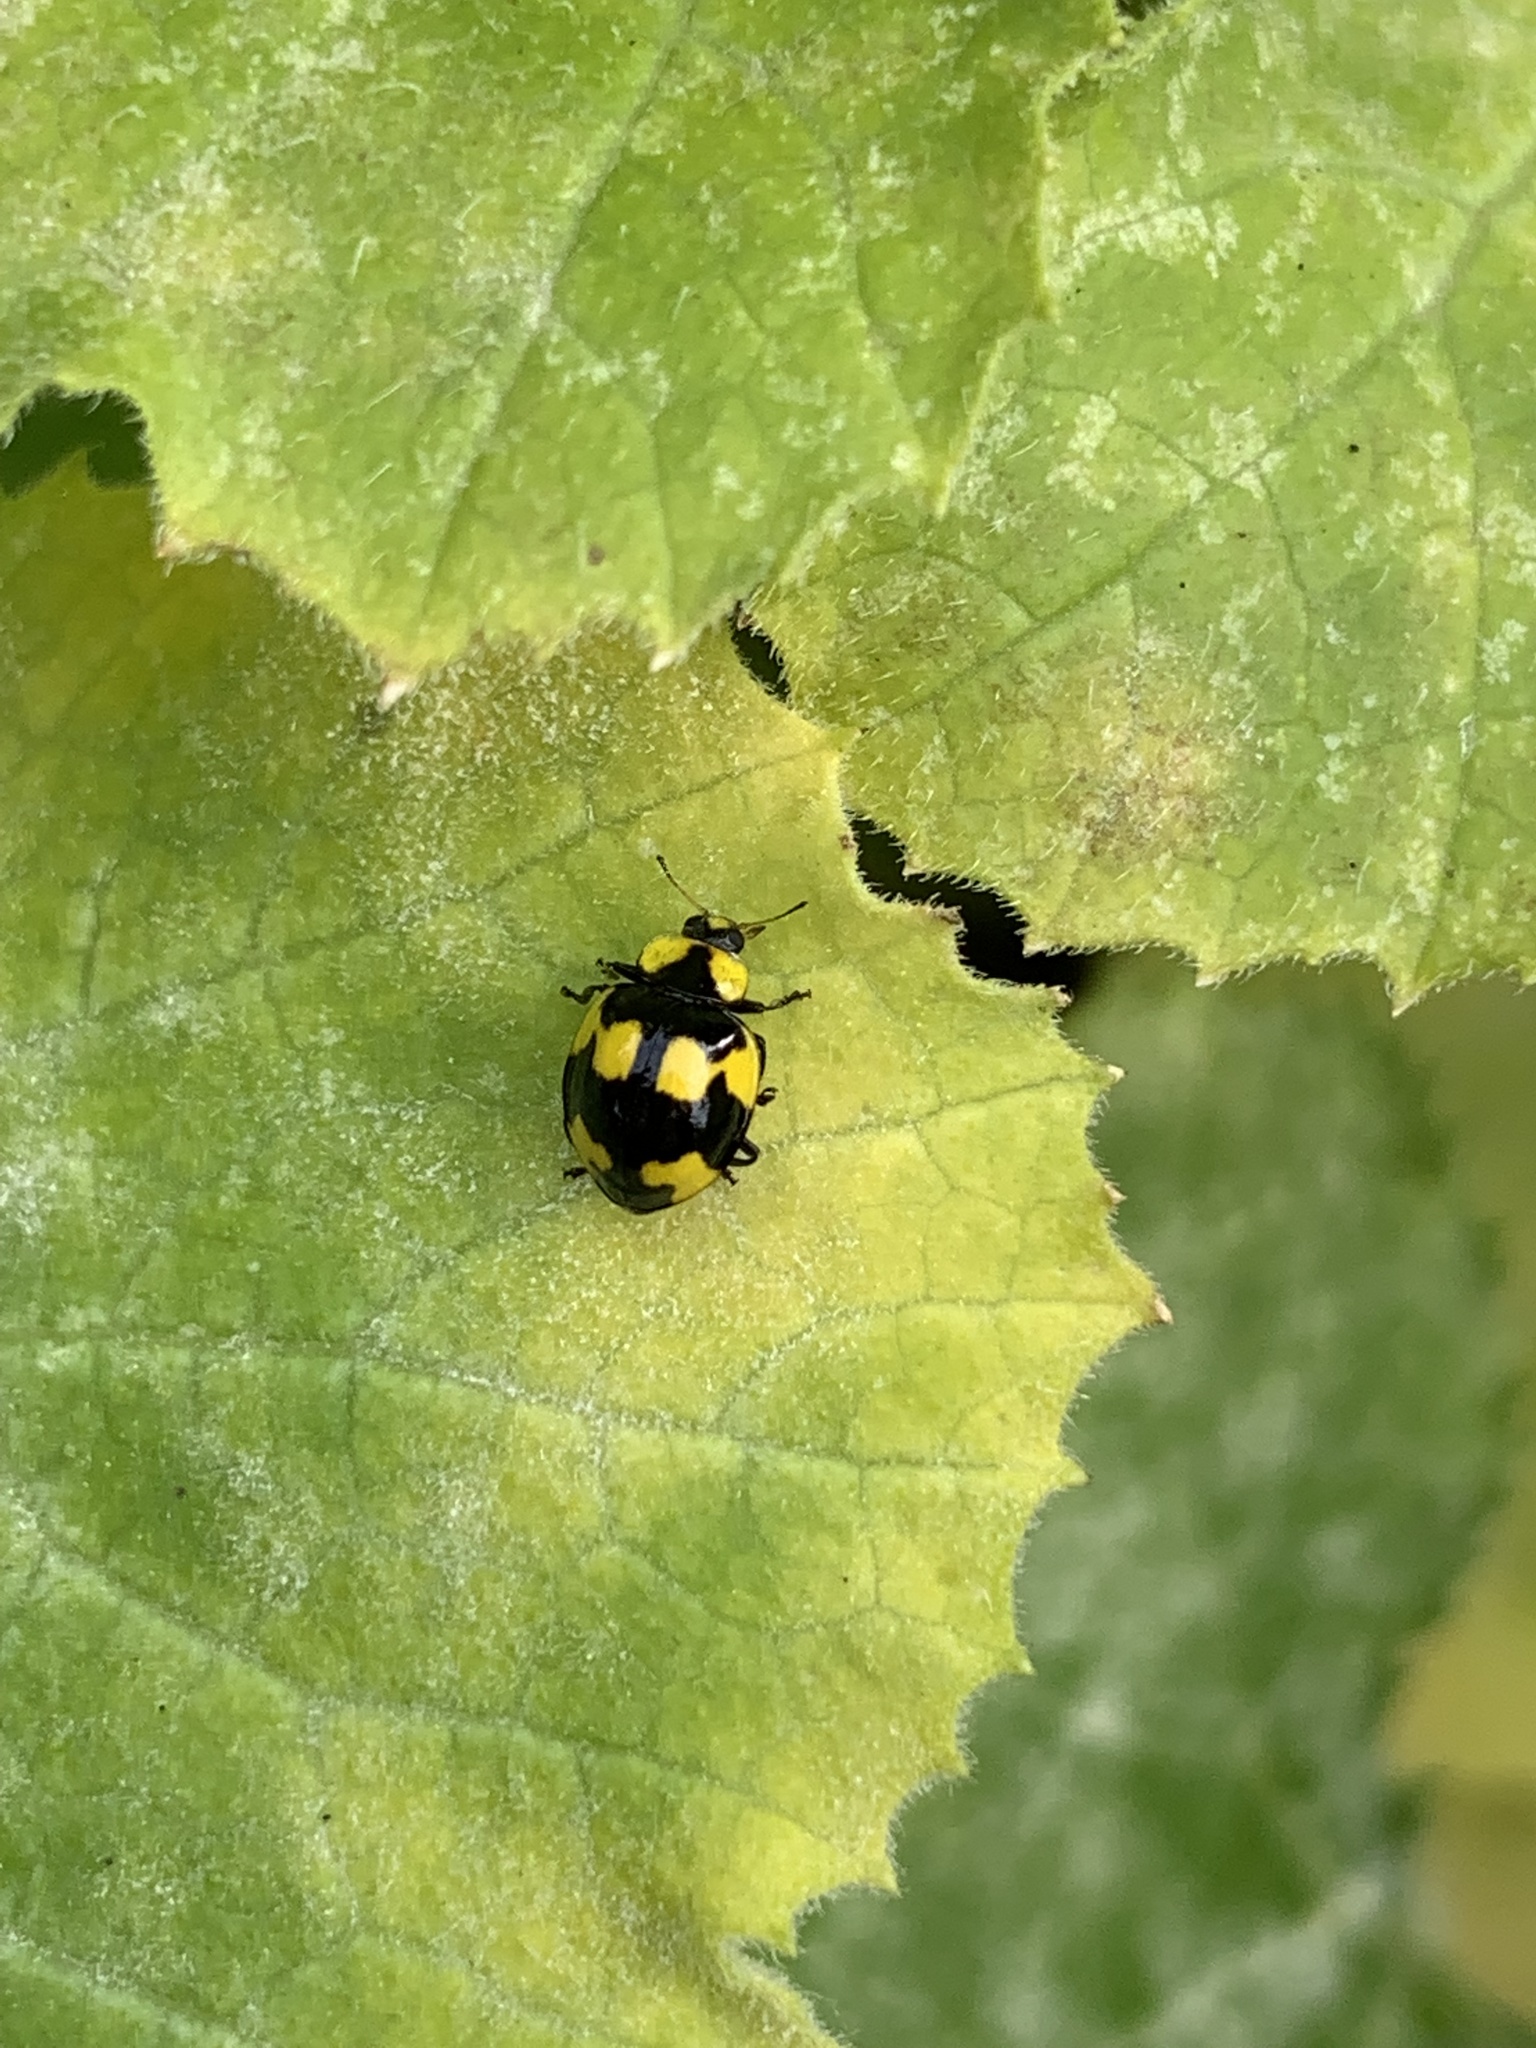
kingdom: Animalia
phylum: Arthropoda
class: Insecta
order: Coleoptera
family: Coccinellidae
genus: Illeis
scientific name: Illeis galbula
